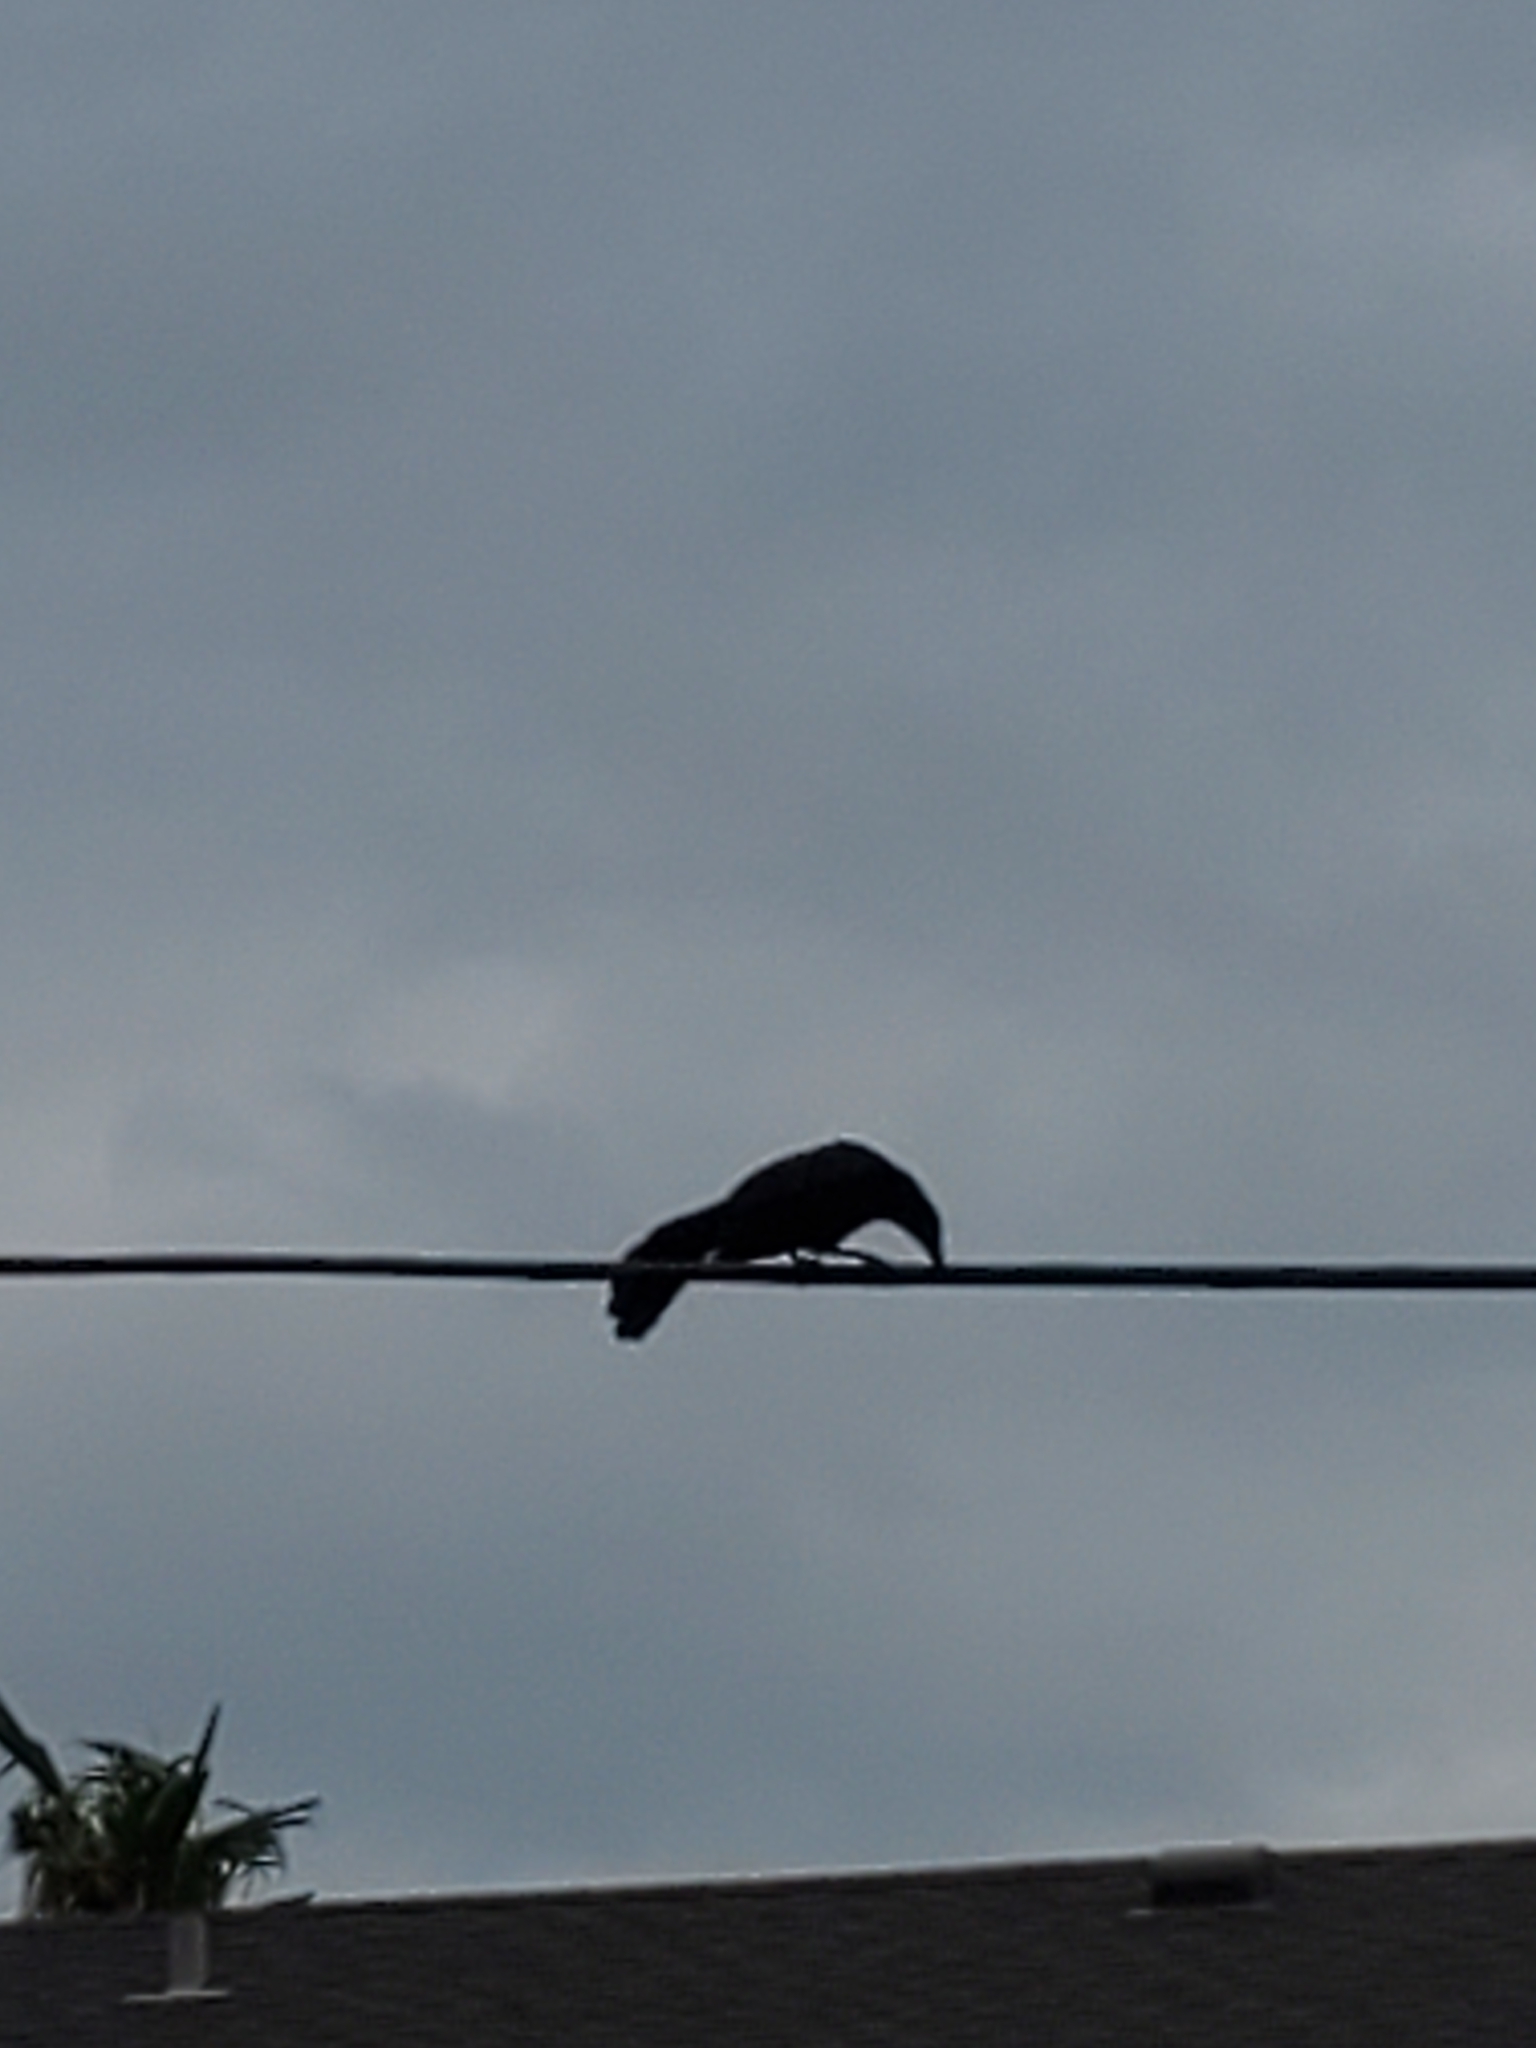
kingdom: Animalia
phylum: Chordata
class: Aves
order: Passeriformes
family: Icteridae
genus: Quiscalus
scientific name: Quiscalus mexicanus
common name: Great-tailed grackle
